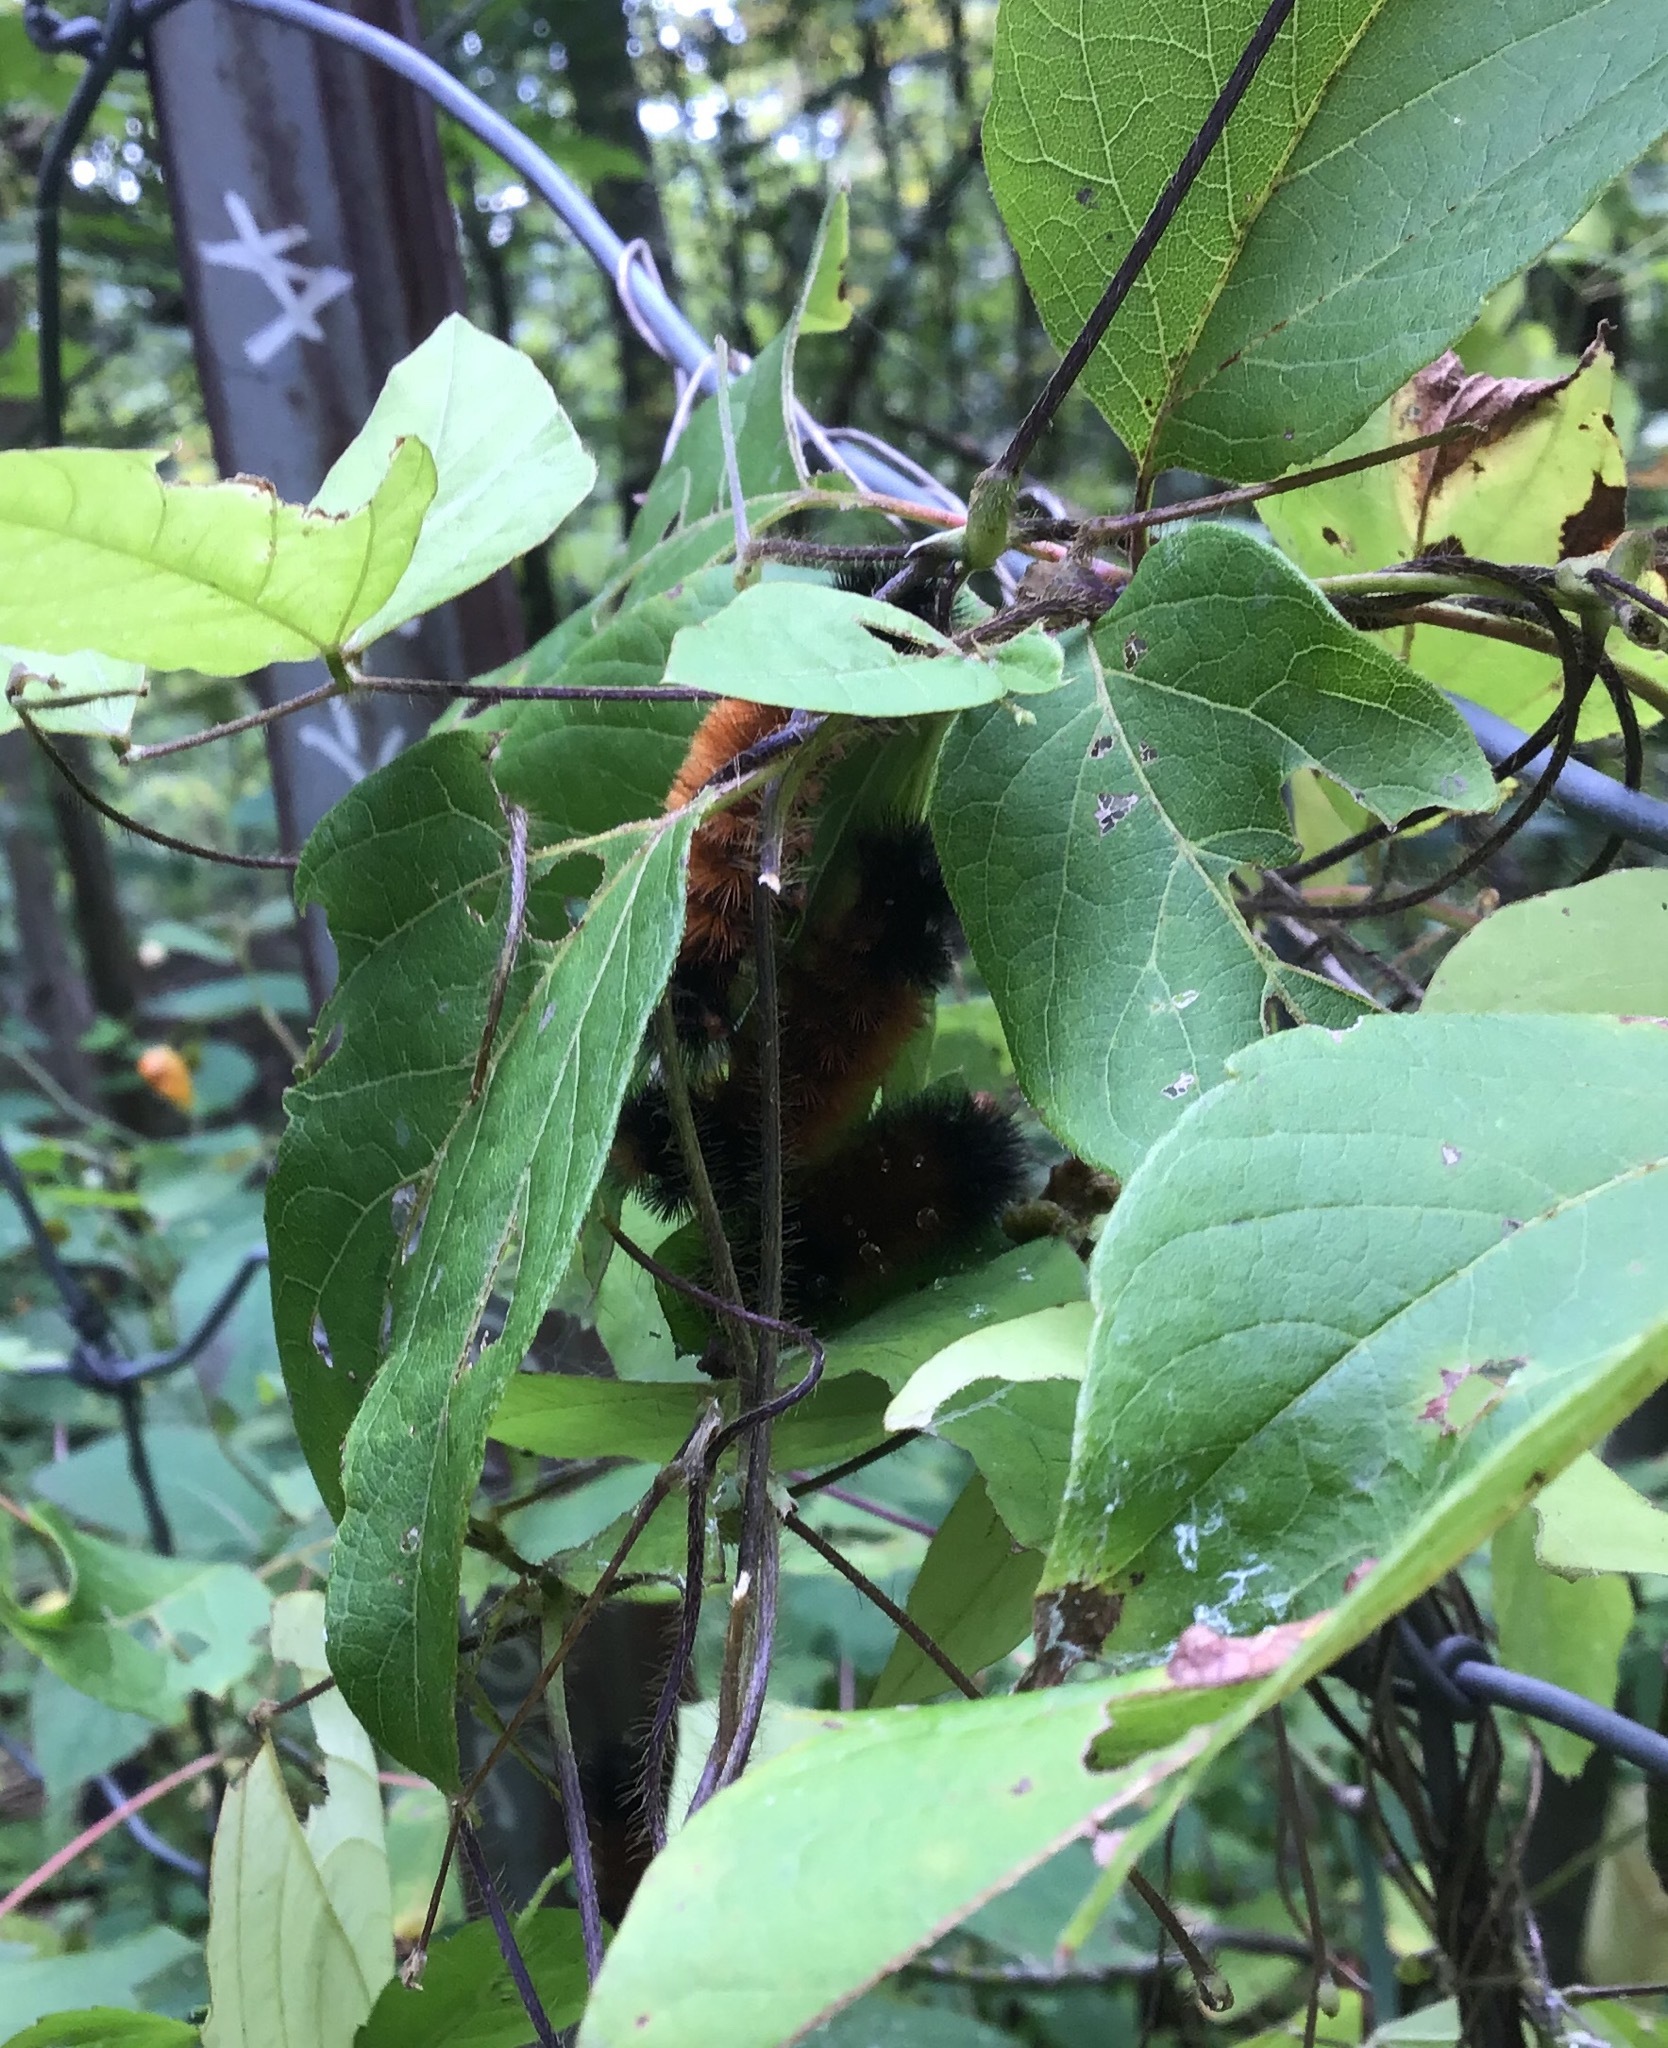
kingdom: Animalia
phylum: Arthropoda
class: Insecta
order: Lepidoptera
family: Erebidae
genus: Pyrrharctia
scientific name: Pyrrharctia isabella
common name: Isabella tiger moth
